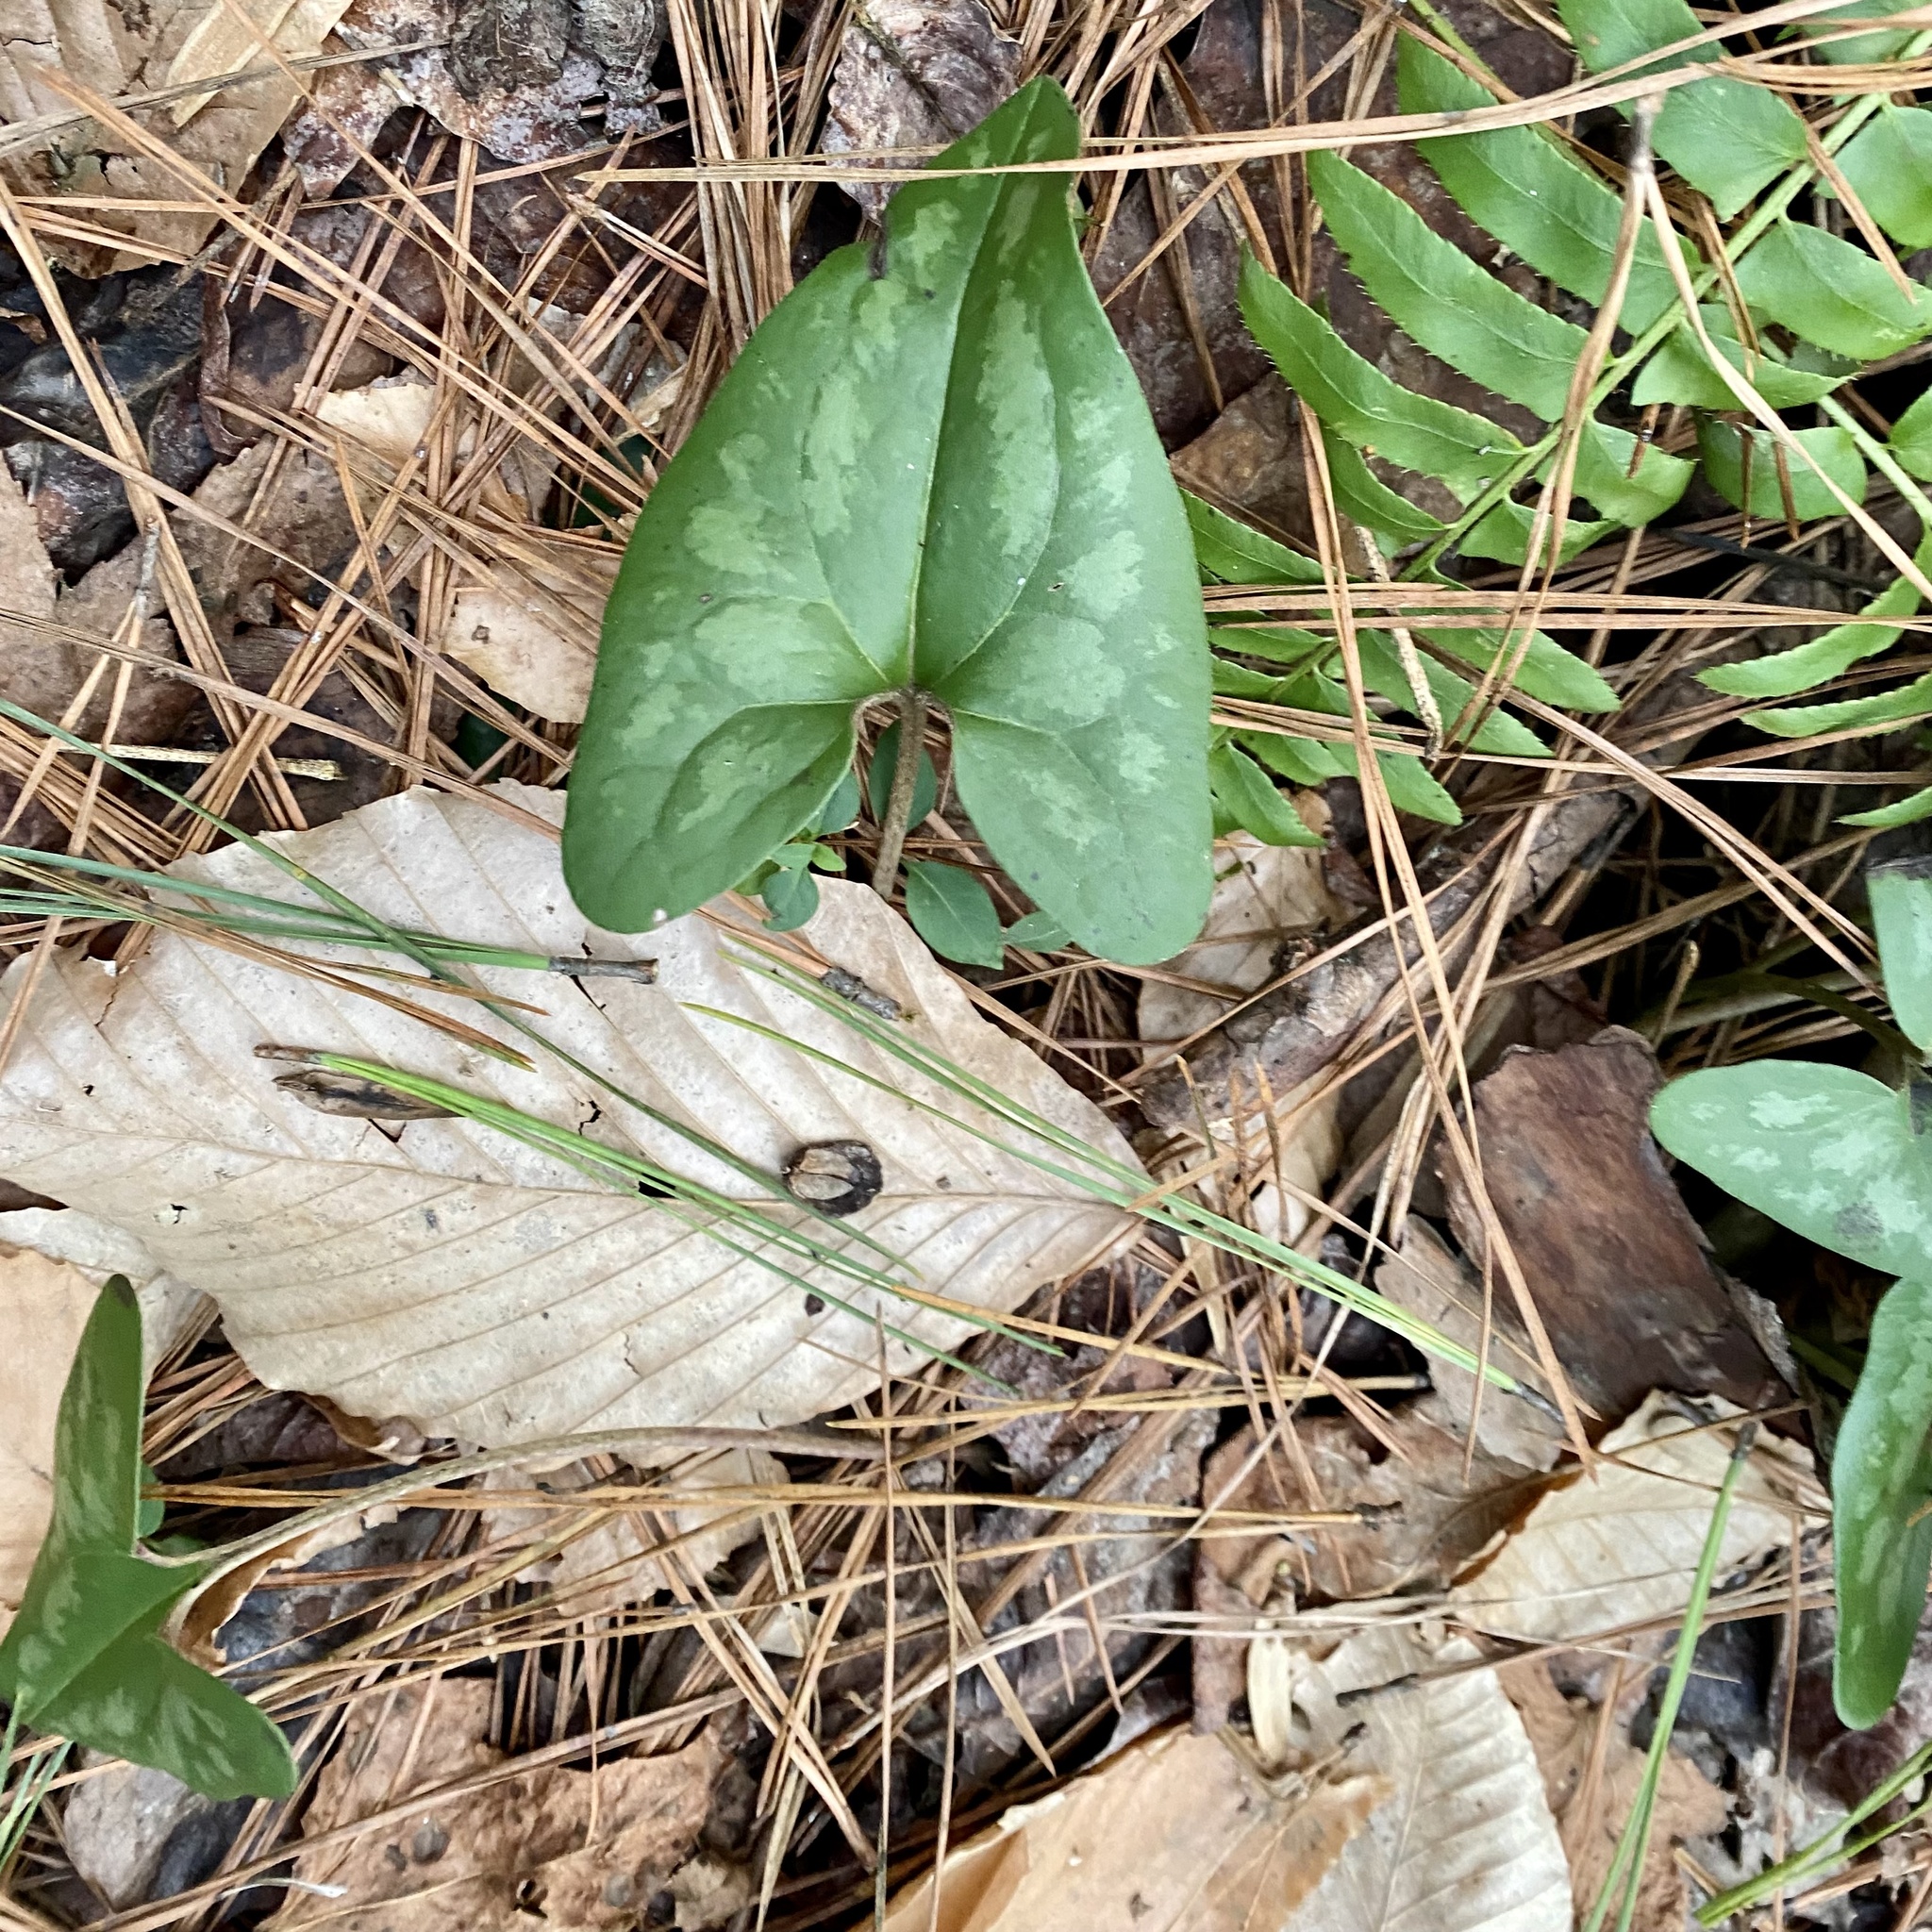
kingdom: Plantae
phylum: Tracheophyta
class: Magnoliopsida
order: Piperales
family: Aristolochiaceae
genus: Hexastylis
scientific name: Hexastylis arifolia
